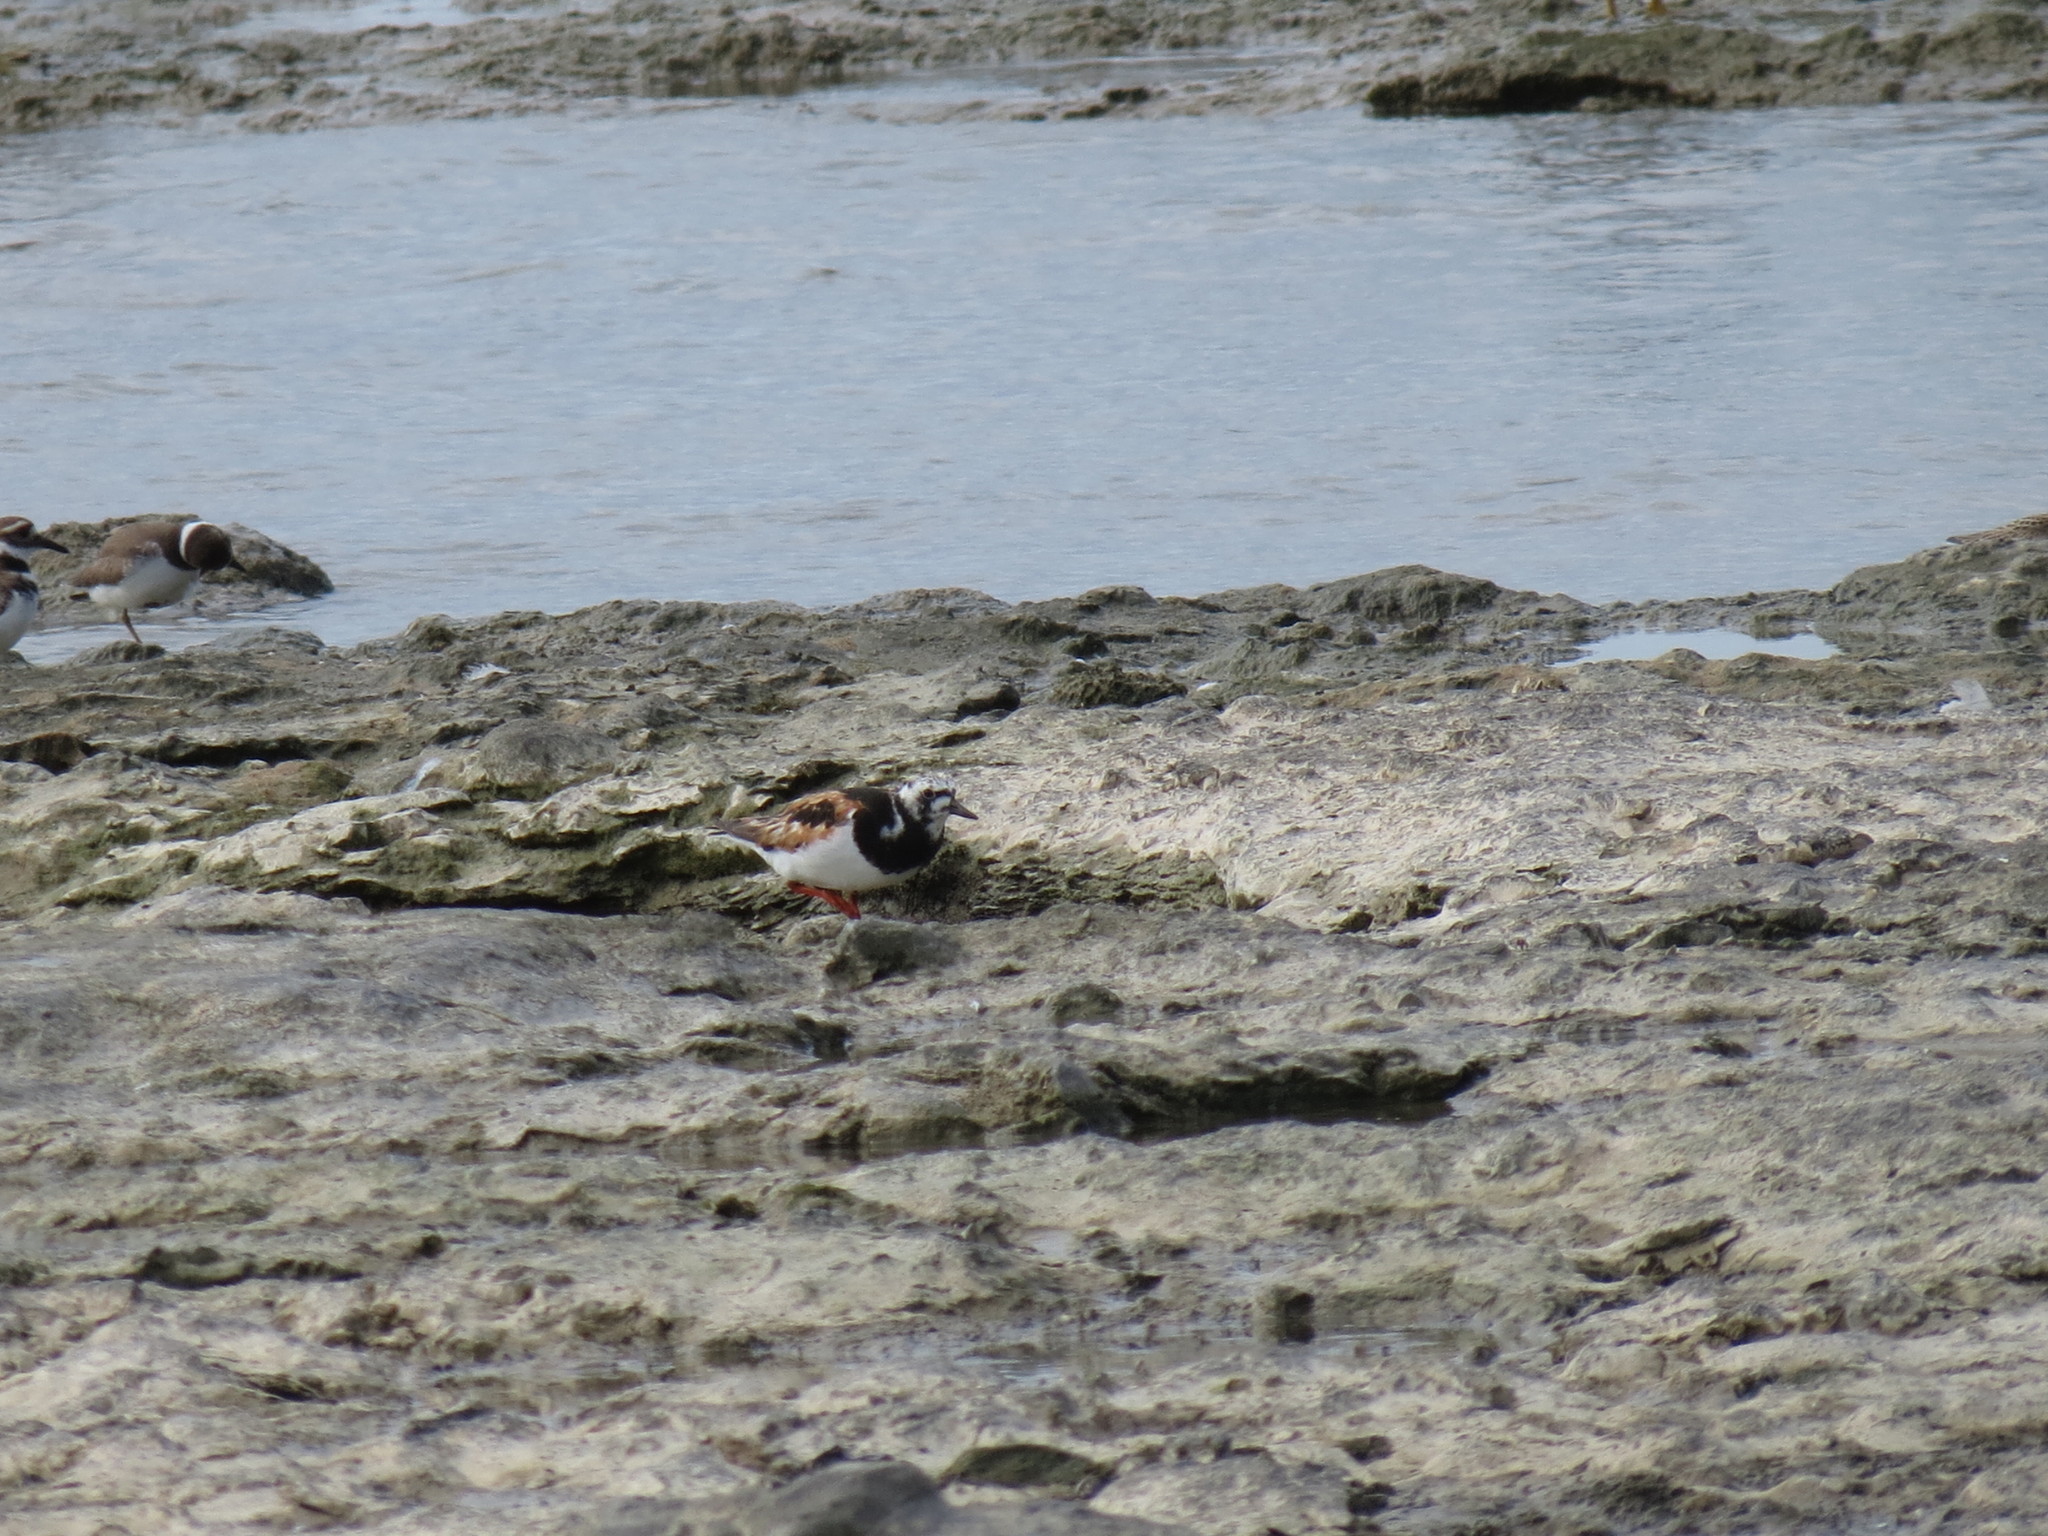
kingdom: Animalia
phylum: Chordata
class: Aves
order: Charadriiformes
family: Scolopacidae
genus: Arenaria
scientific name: Arenaria interpres
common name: Ruddy turnstone
